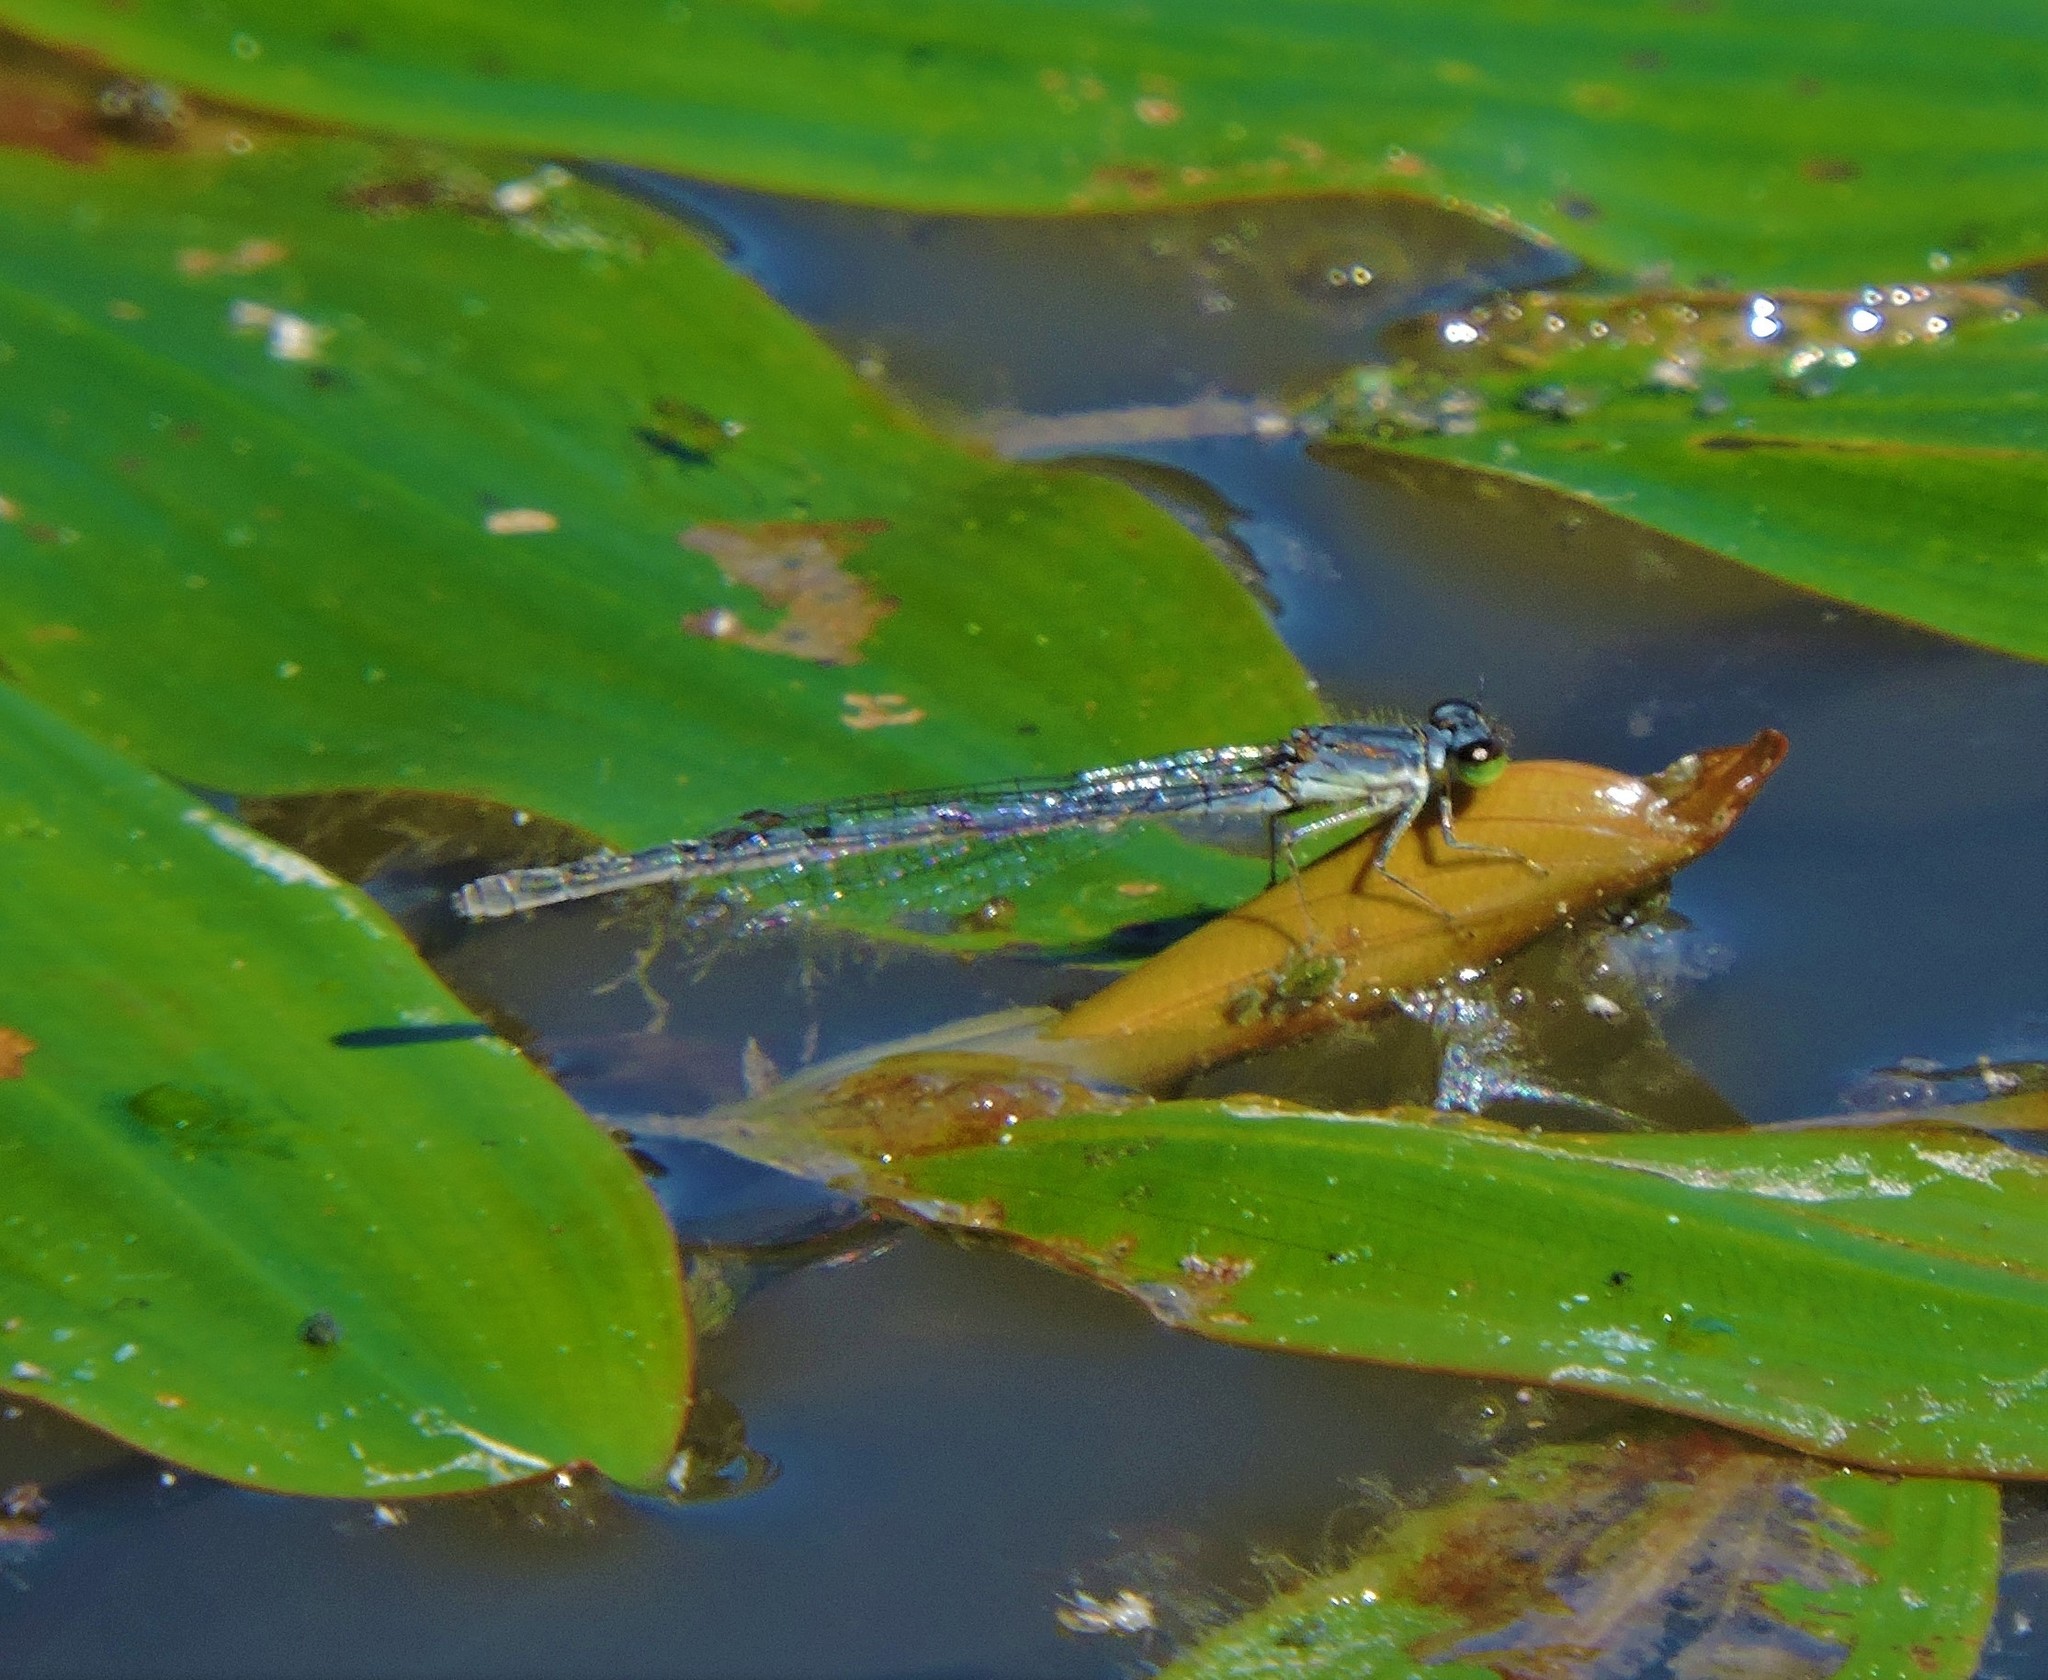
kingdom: Animalia
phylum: Arthropoda
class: Insecta
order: Odonata
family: Coenagrionidae
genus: Ischnura
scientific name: Ischnura posita
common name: Fragile forktail
